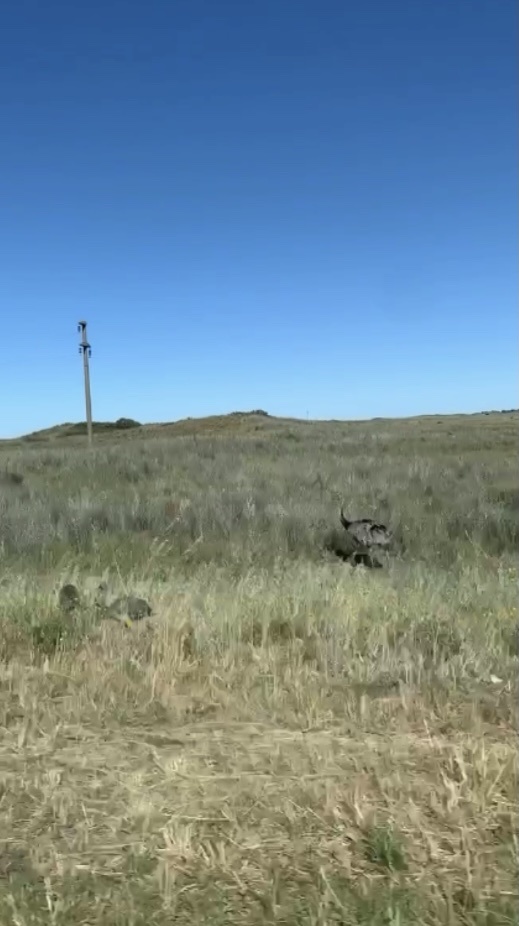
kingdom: Animalia
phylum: Chordata
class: Aves
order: Rheiformes
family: Rheidae
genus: Rhea
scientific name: Rhea americana
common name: Greater rhea
